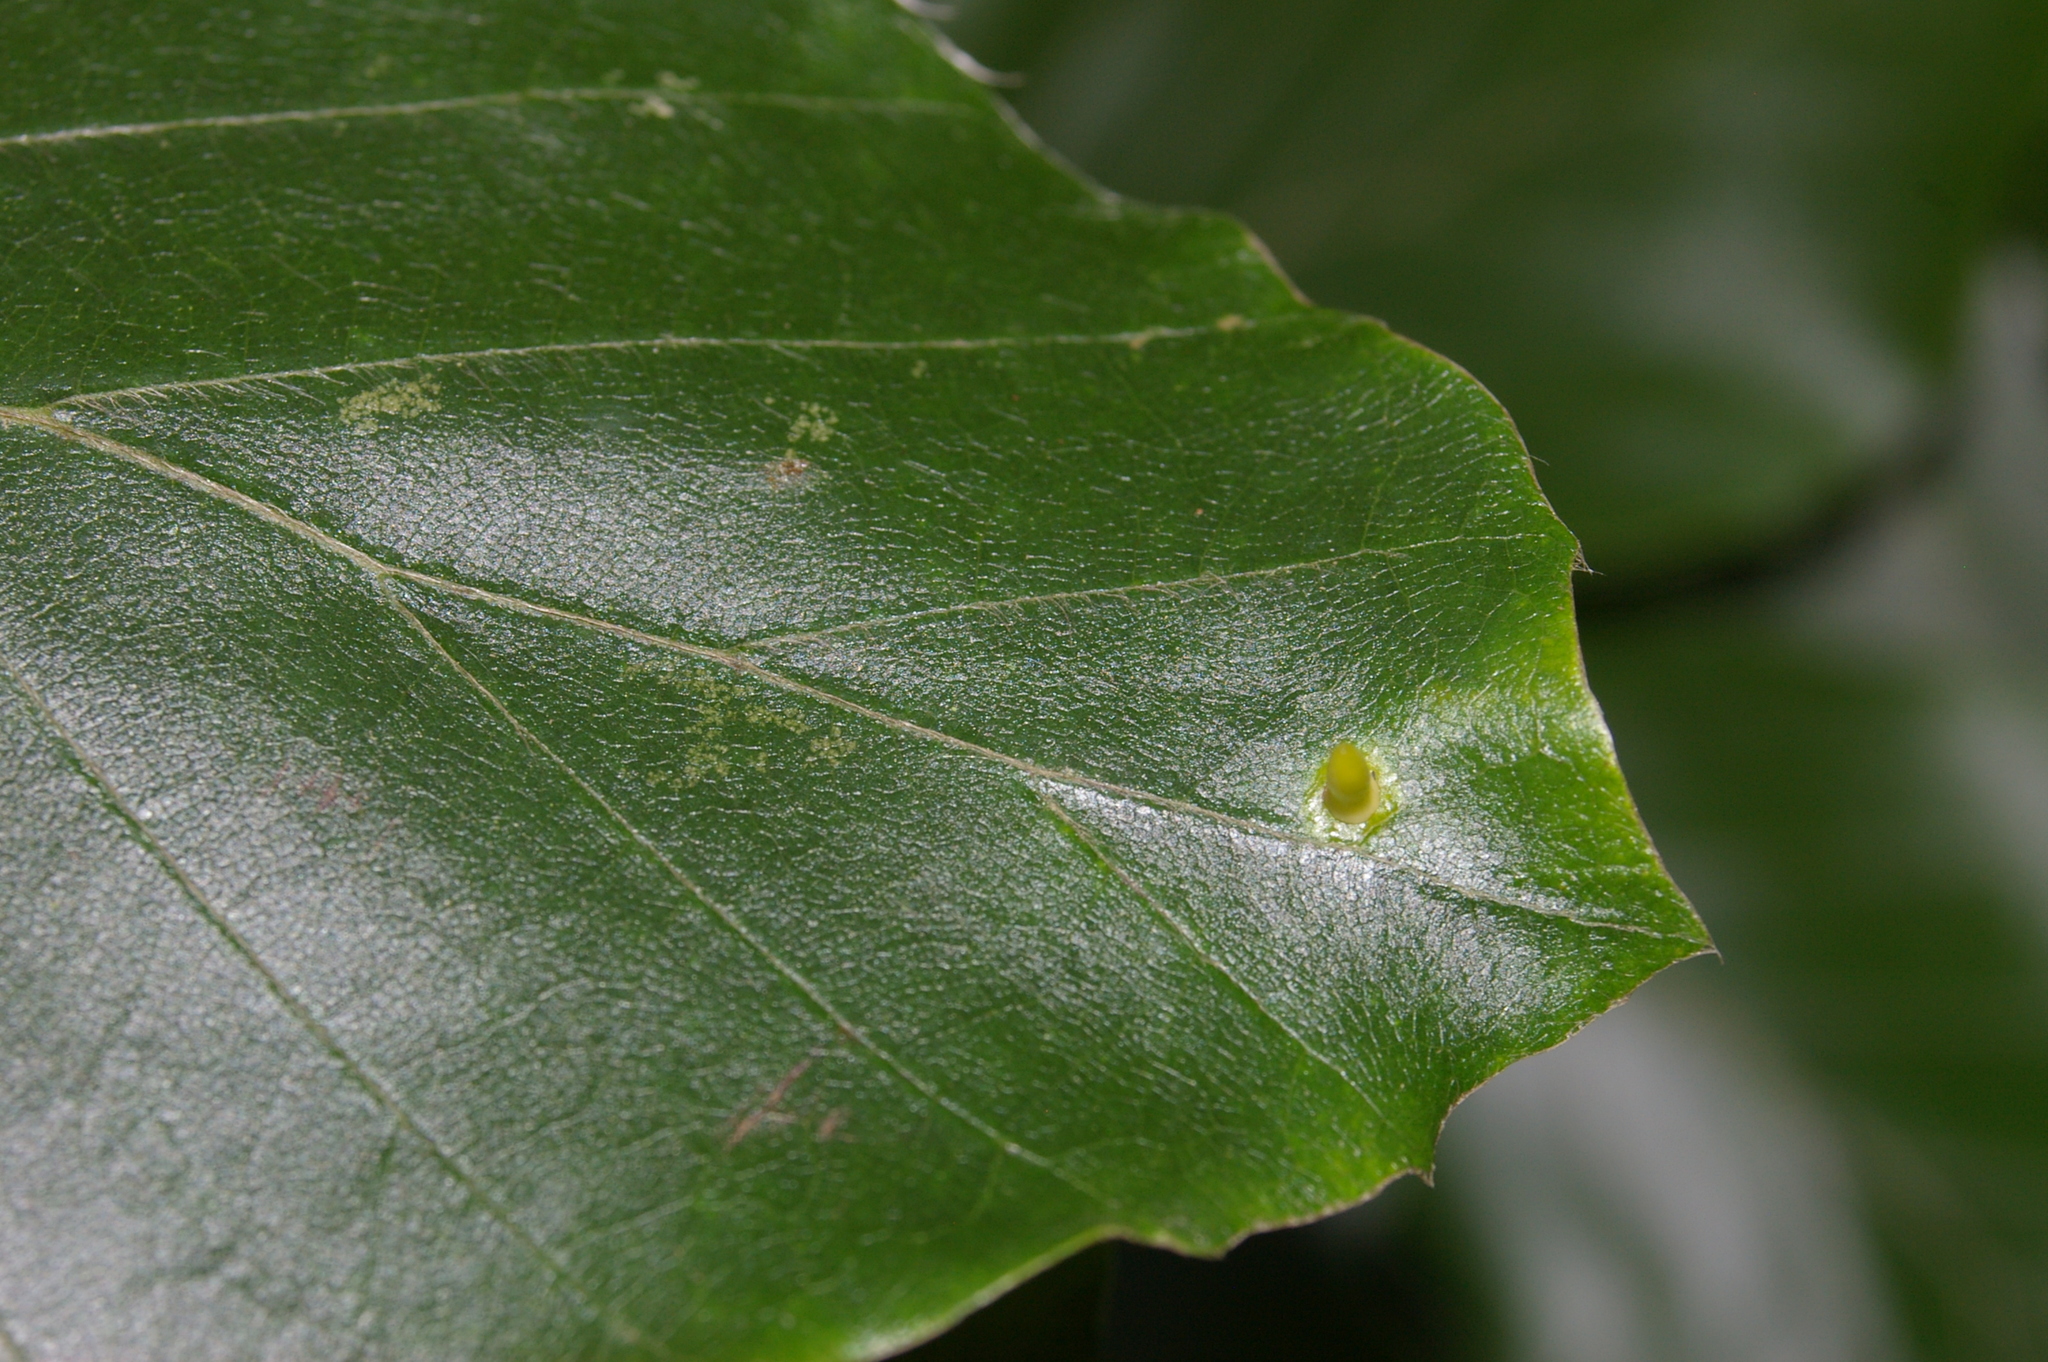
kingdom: Animalia
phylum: Arthropoda
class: Insecta
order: Diptera
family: Cecidomyiidae
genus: Hartigiola
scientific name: Hartigiola annulipes
